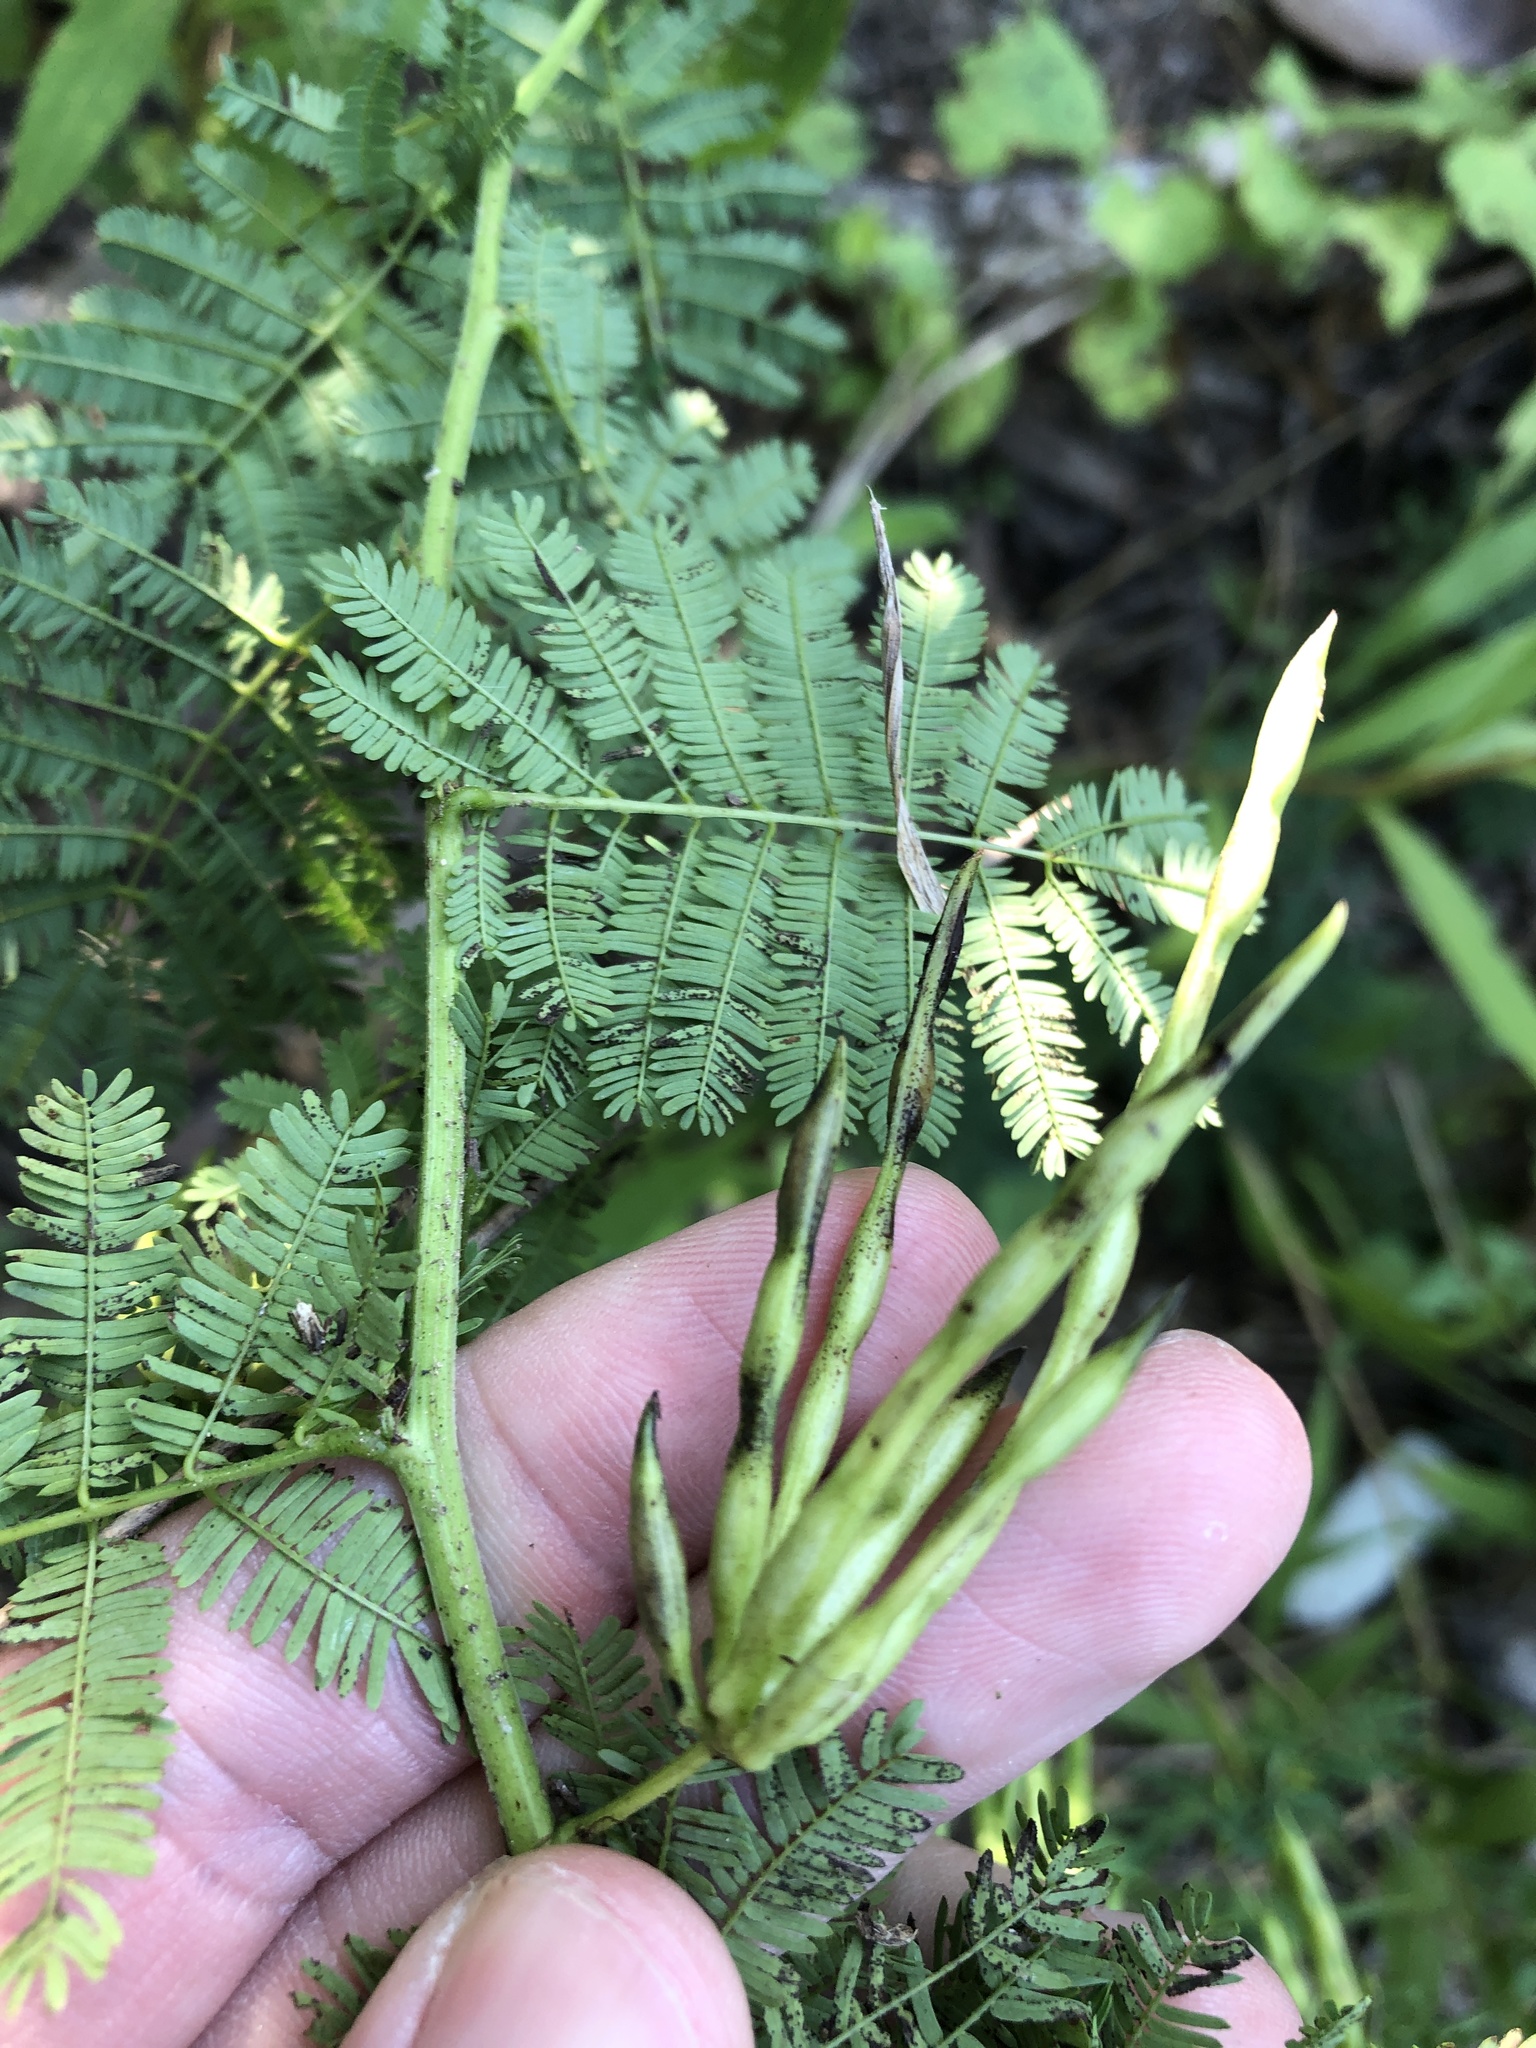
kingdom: Plantae
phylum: Tracheophyta
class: Magnoliopsida
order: Fabales
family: Fabaceae
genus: Desmanthus
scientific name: Desmanthus leptolobus
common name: Prairie-mimosa
